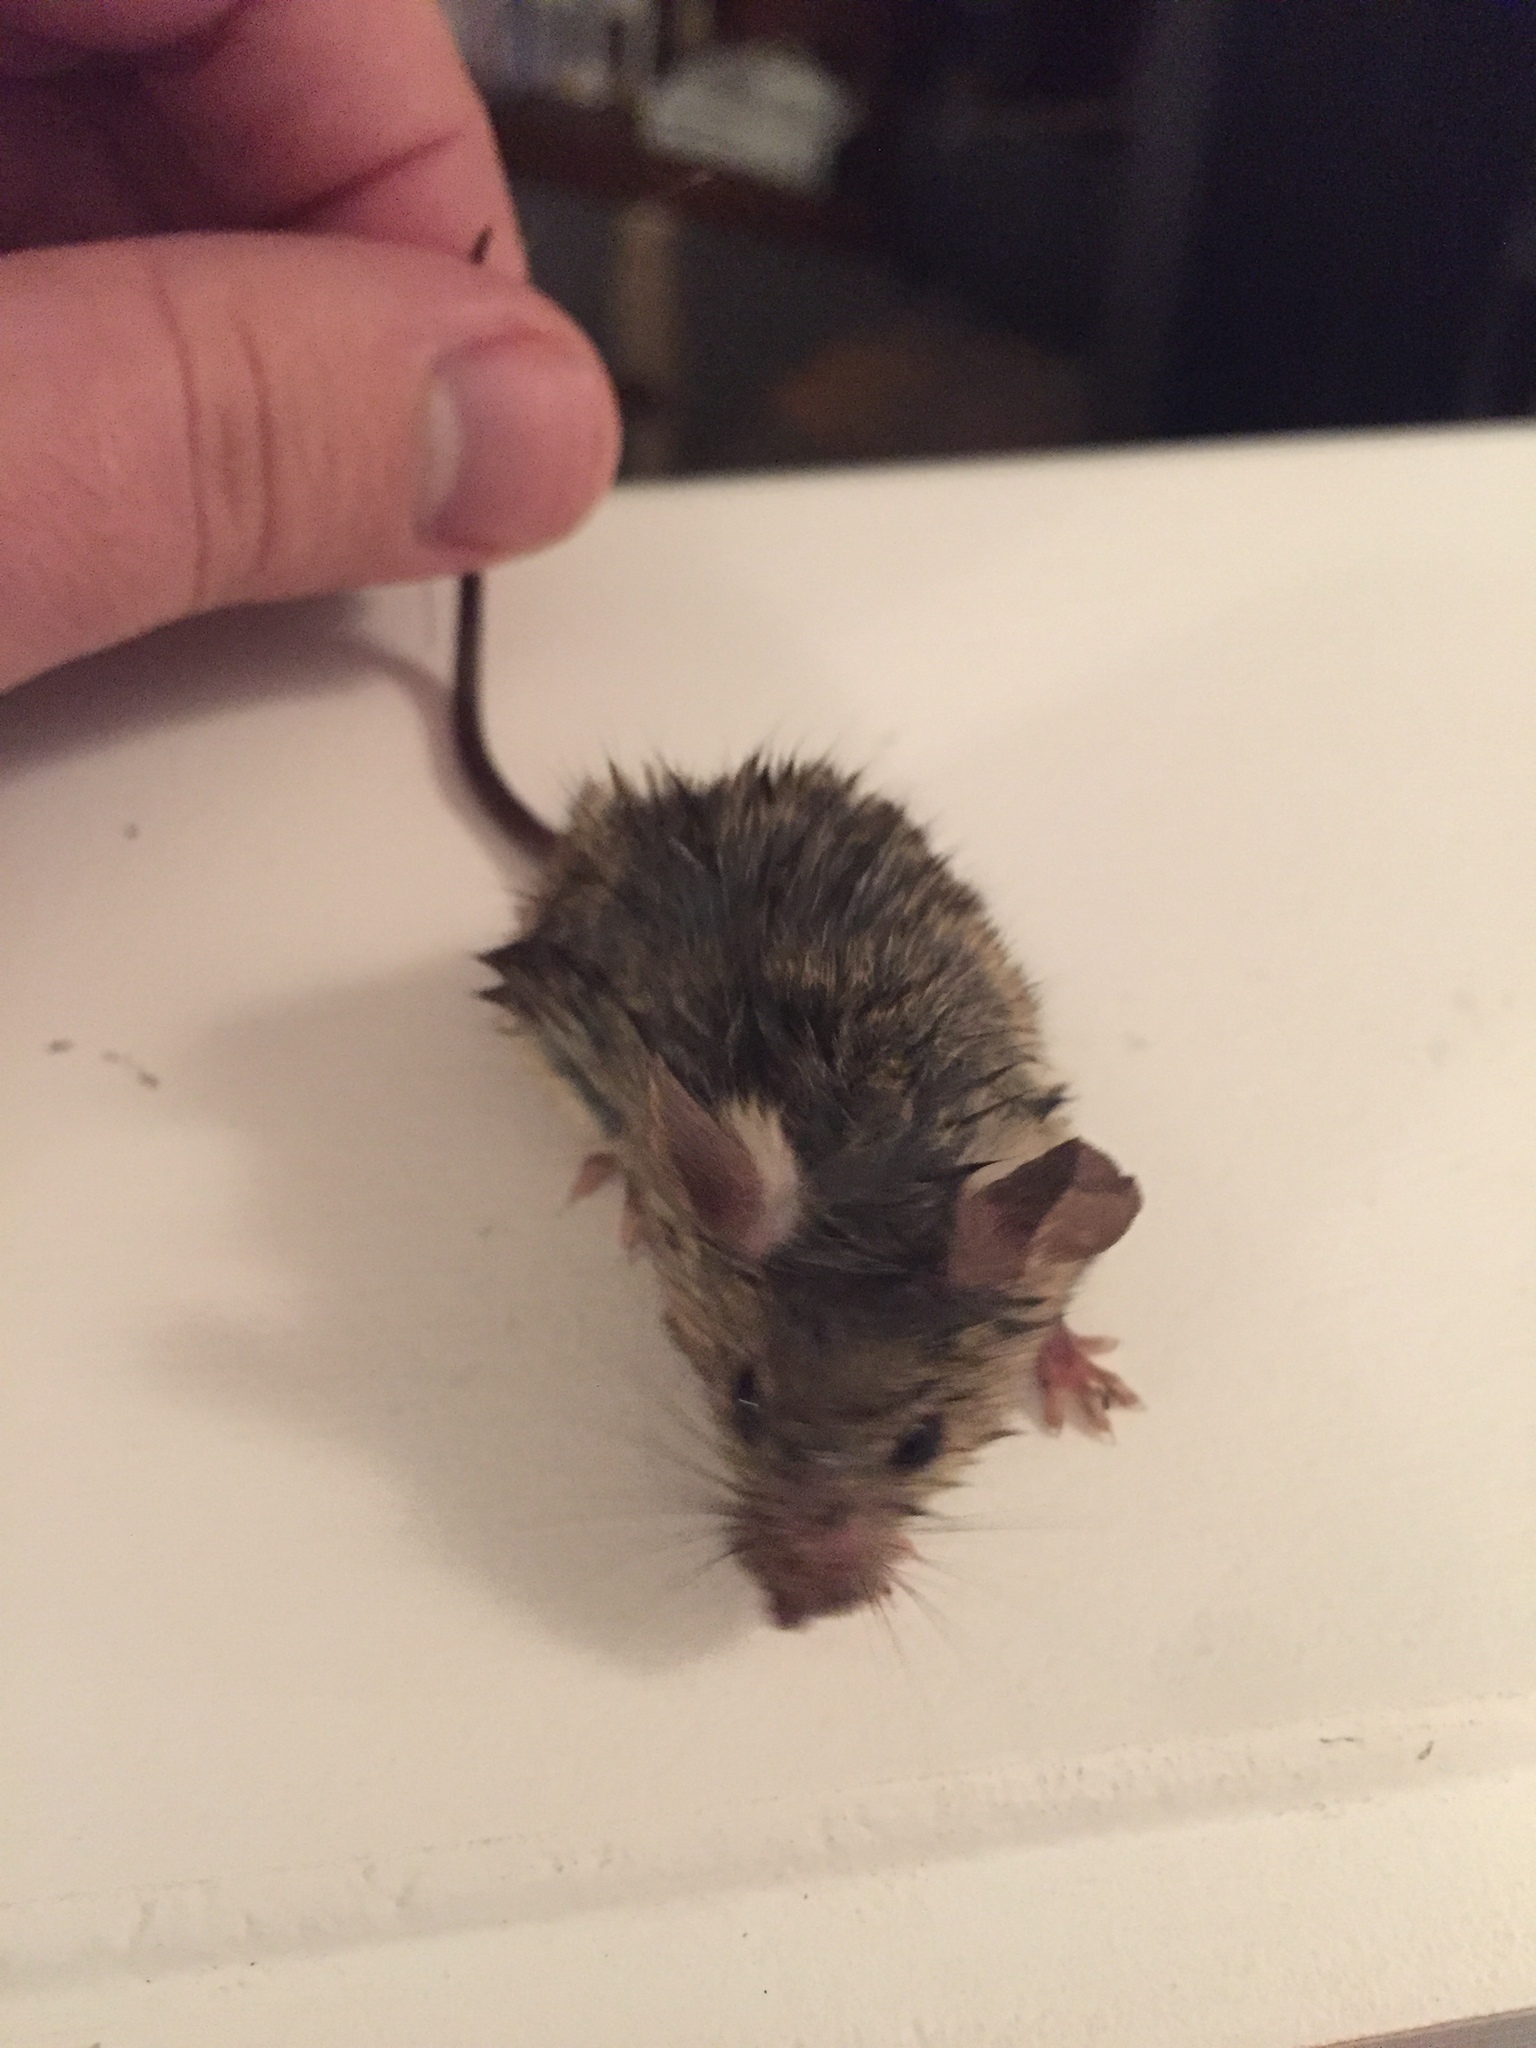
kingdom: Animalia
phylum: Chordata
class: Mammalia
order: Rodentia
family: Muridae
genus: Mus
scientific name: Mus musculus
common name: House mouse
